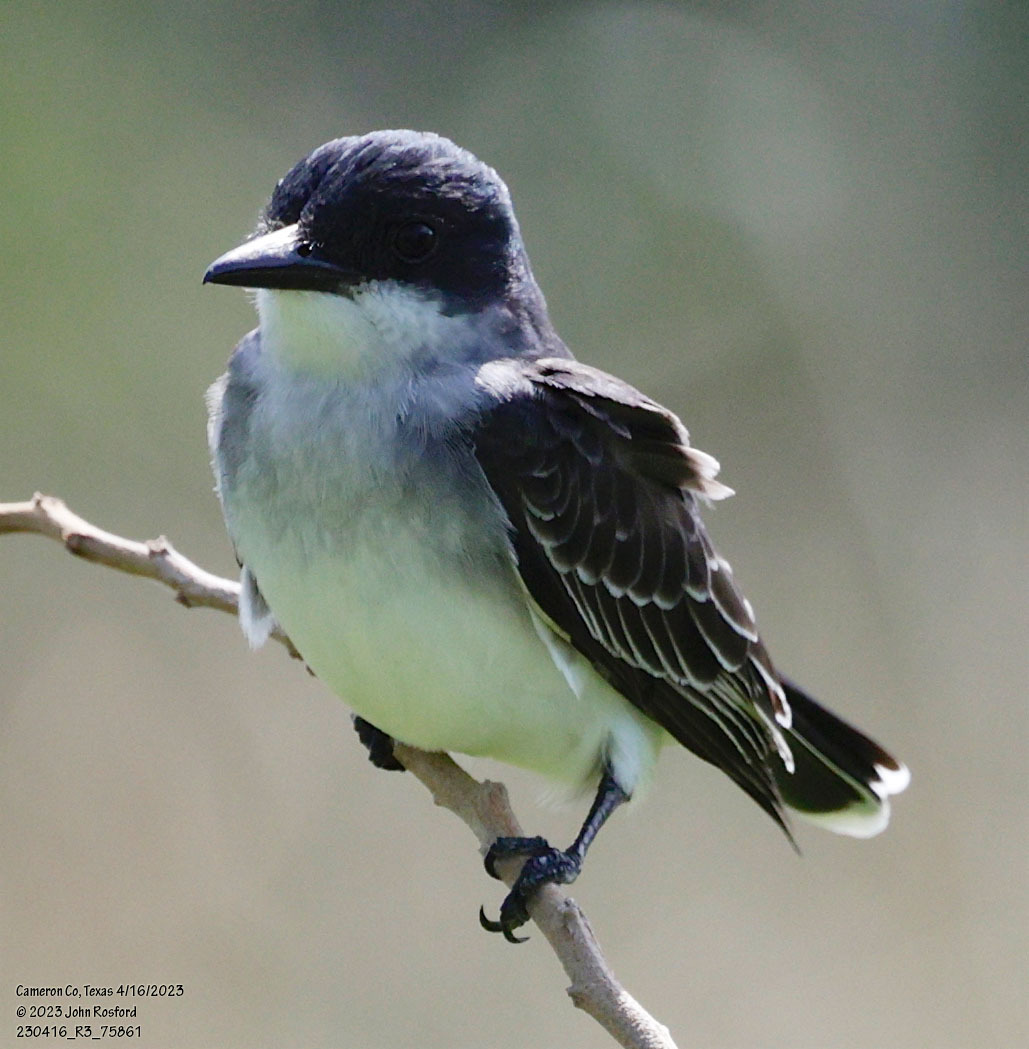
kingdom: Animalia
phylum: Chordata
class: Aves
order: Passeriformes
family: Tyrannidae
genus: Tyrannus
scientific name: Tyrannus tyrannus
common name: Eastern kingbird
